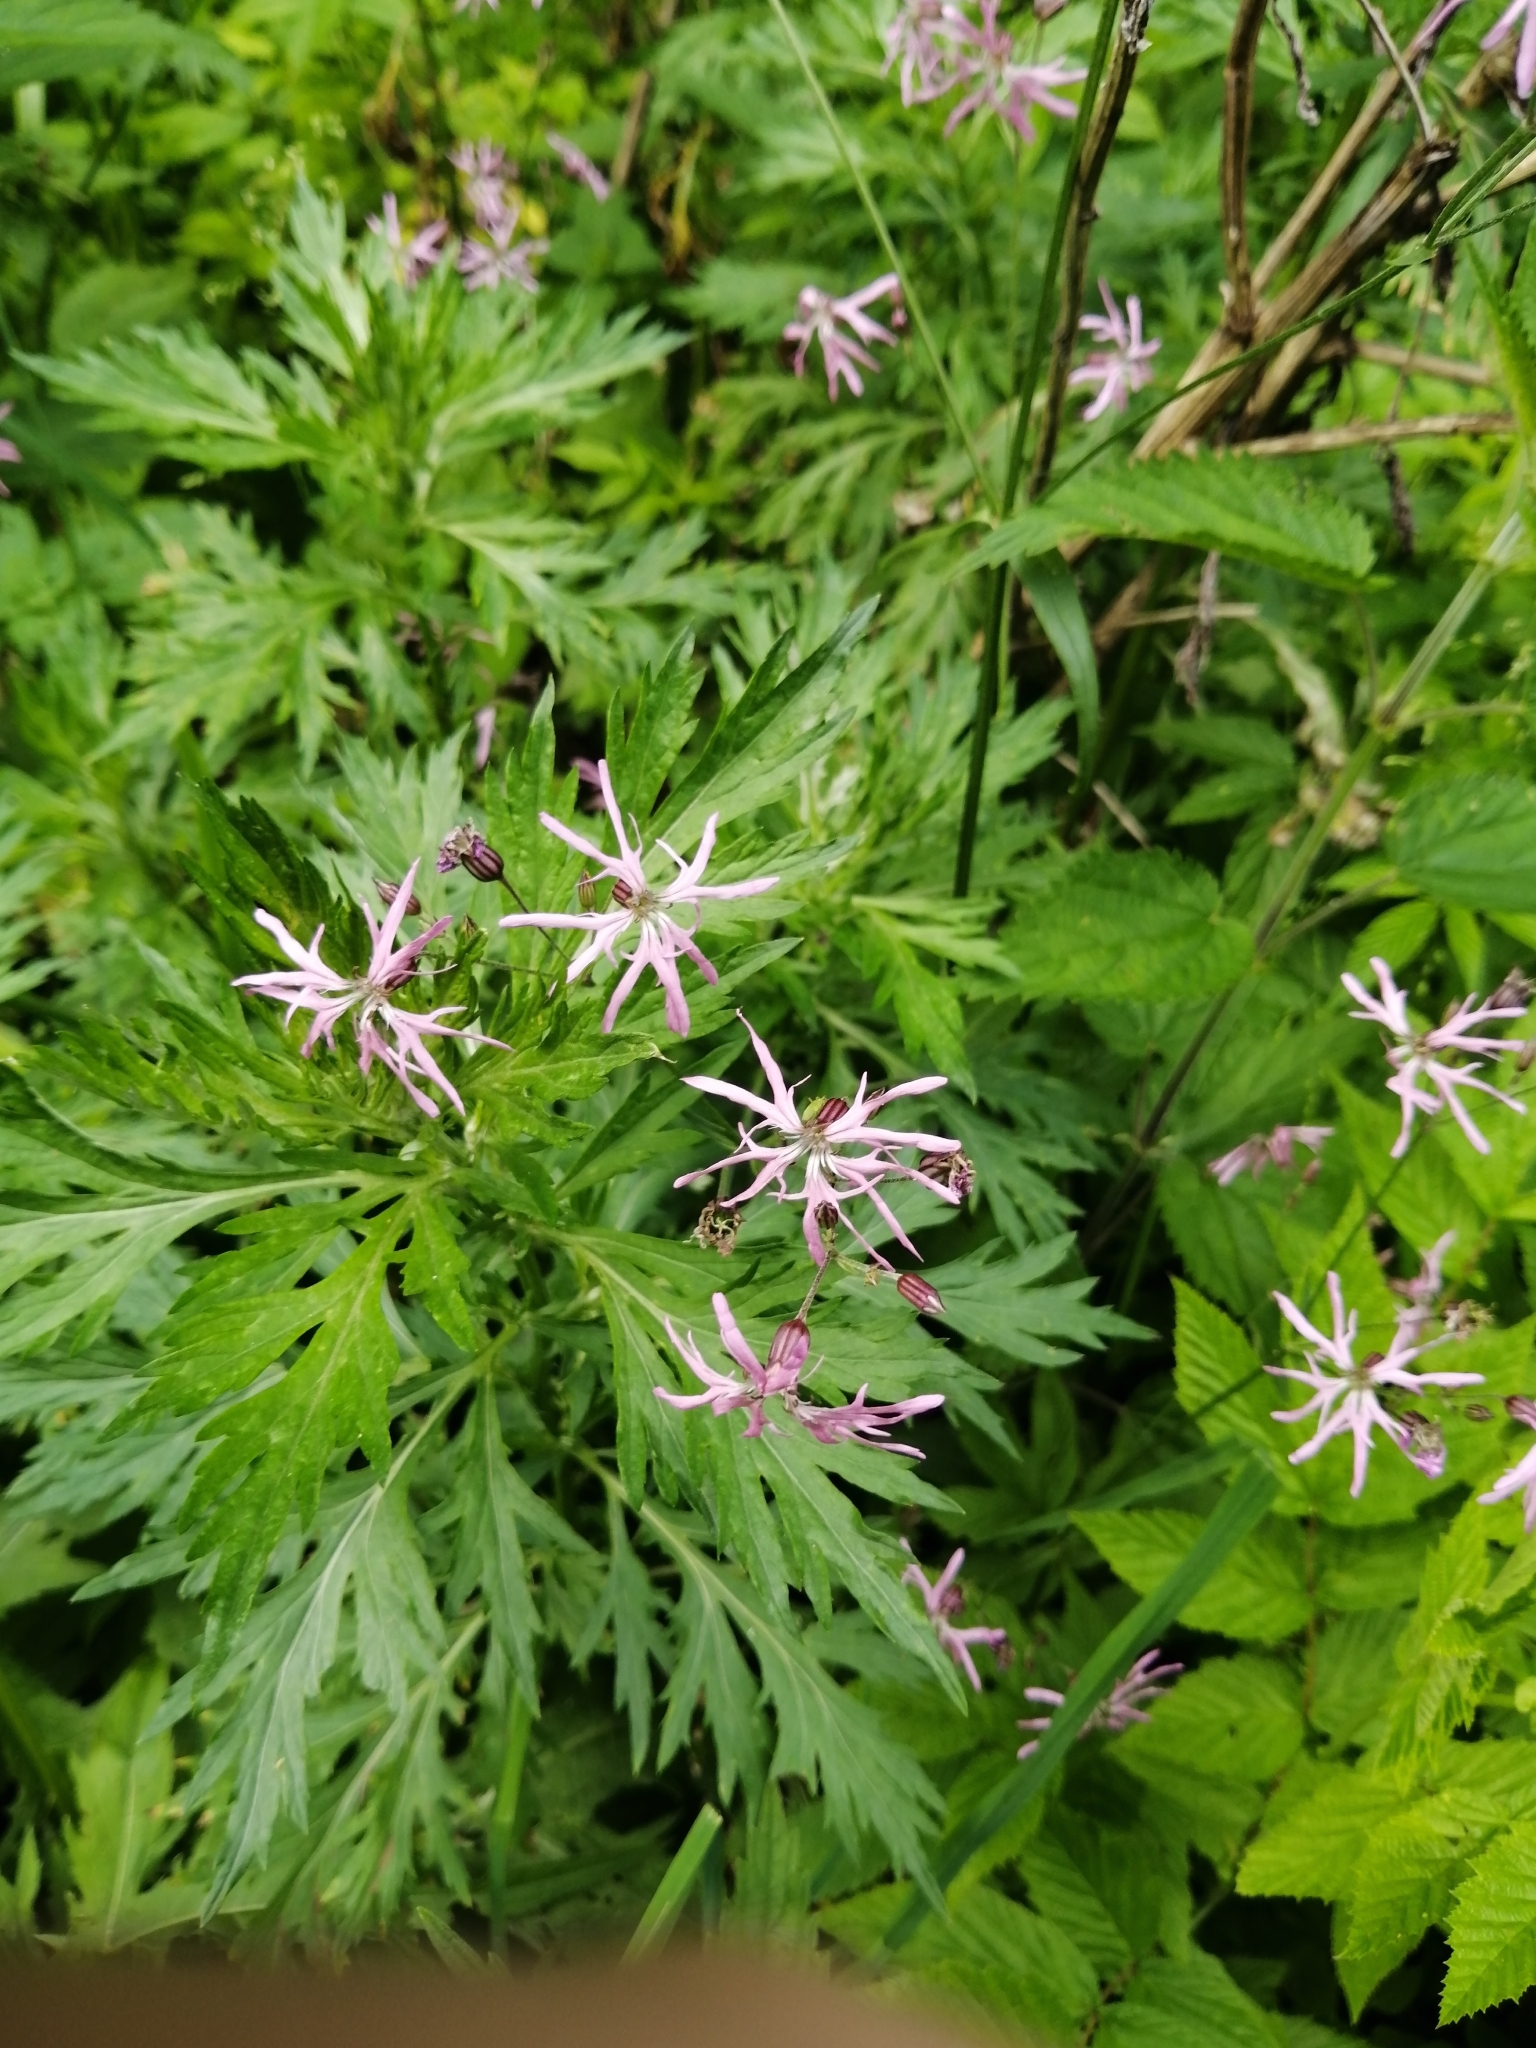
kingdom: Plantae
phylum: Tracheophyta
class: Magnoliopsida
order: Caryophyllales
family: Caryophyllaceae
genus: Silene
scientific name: Silene flos-cuculi
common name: Ragged-robin
